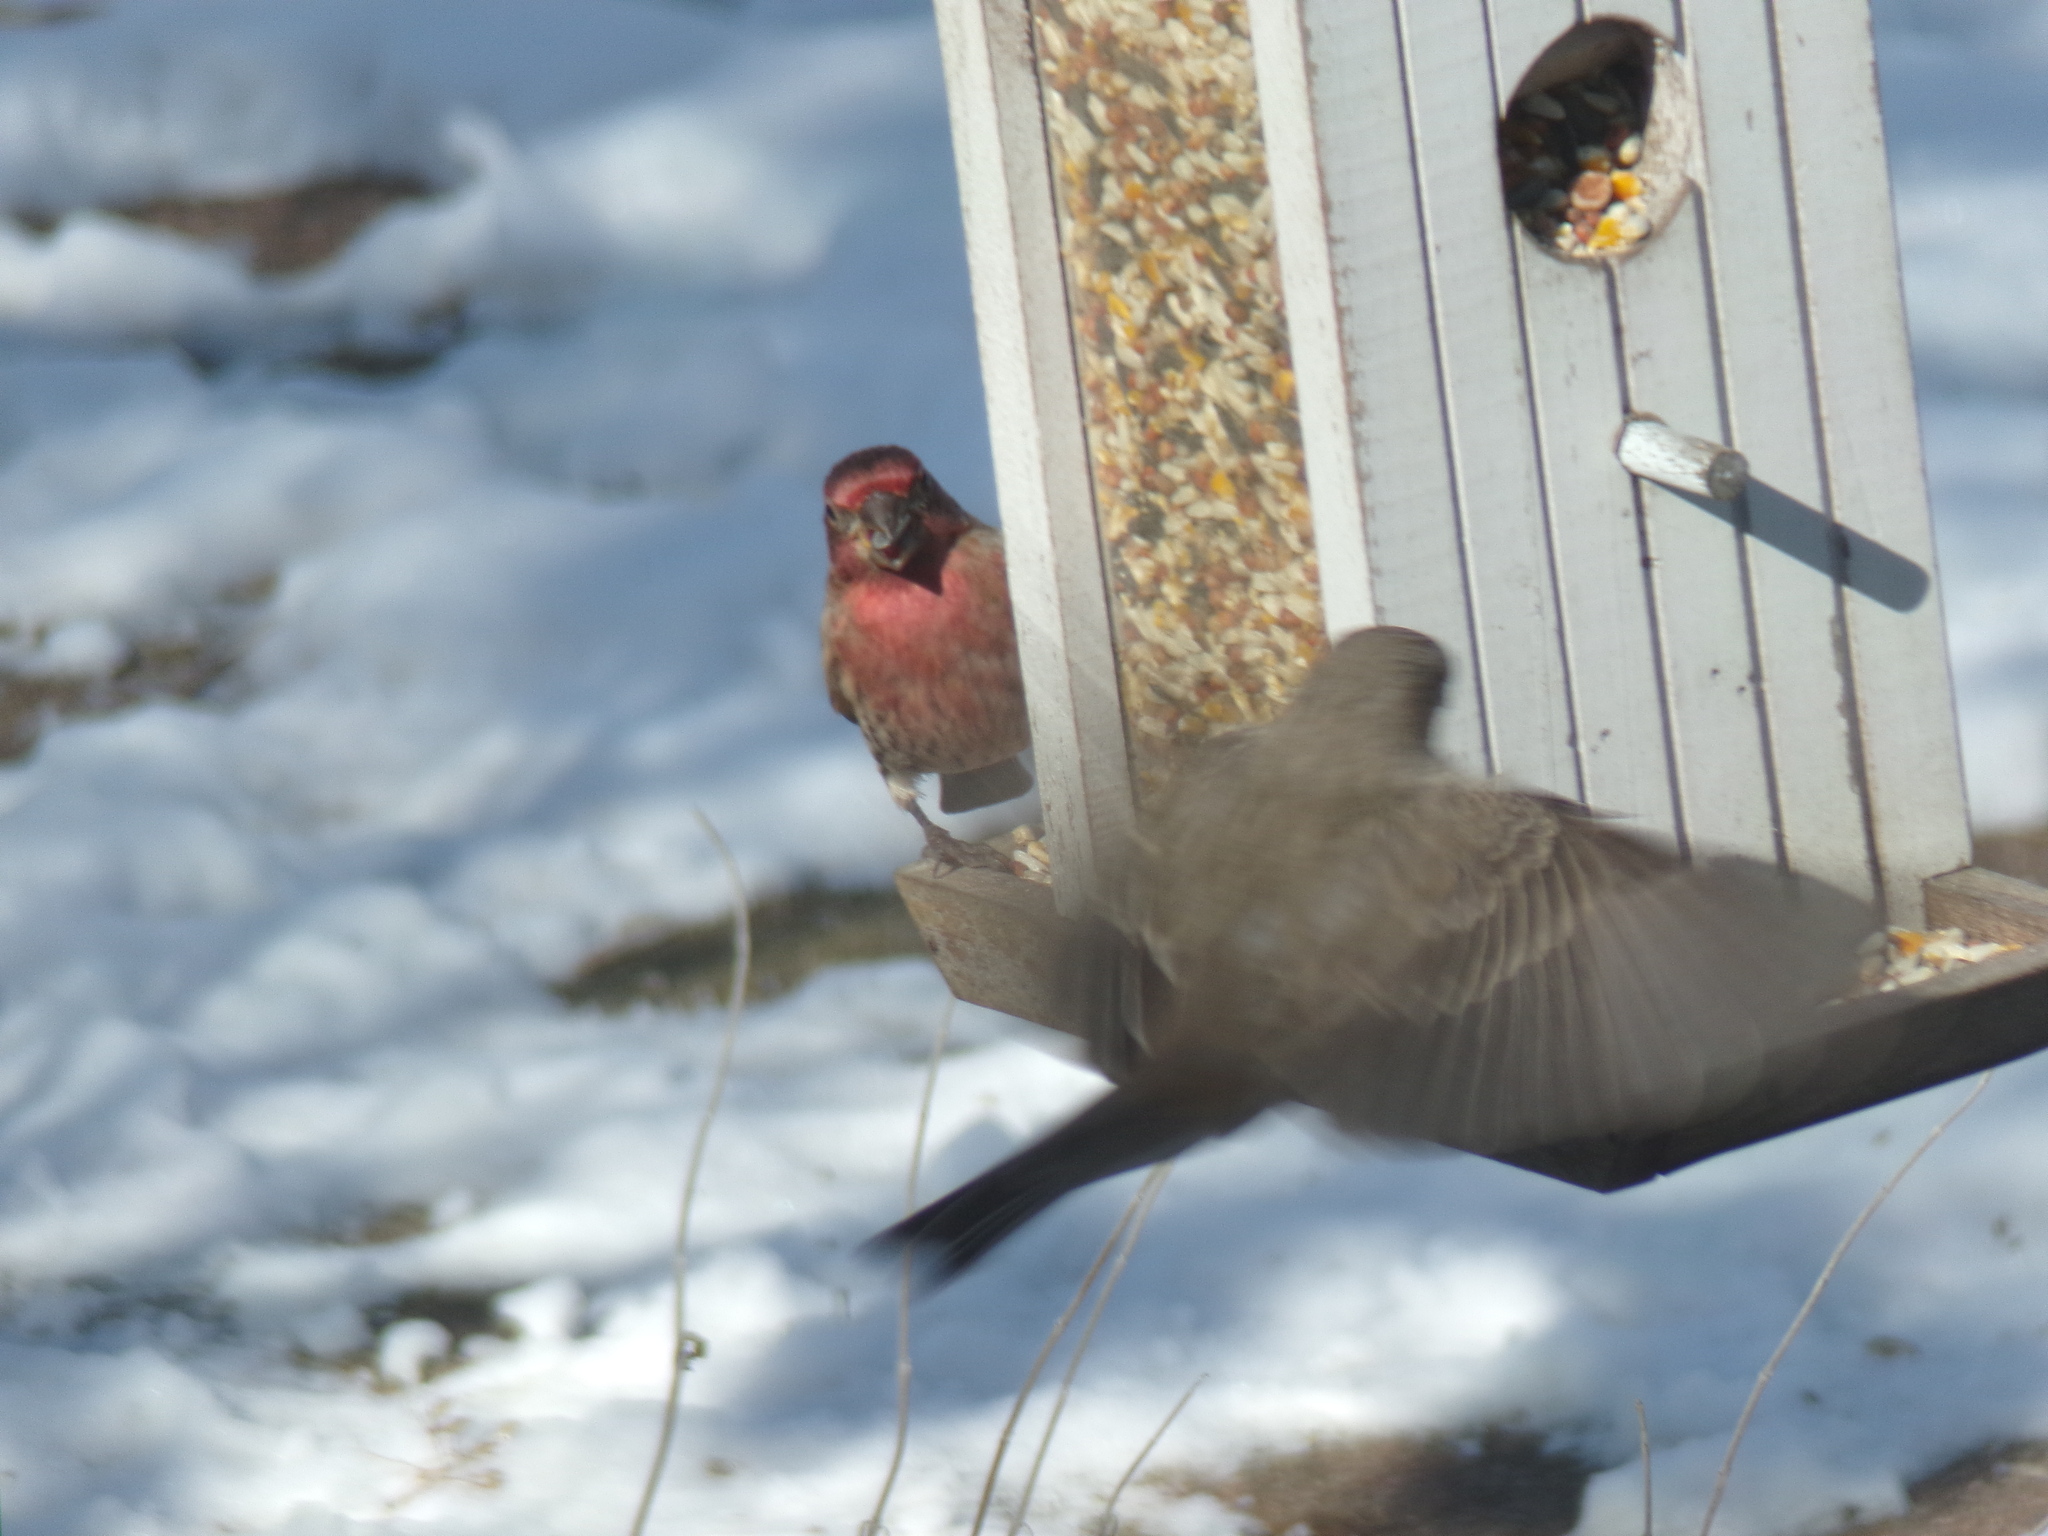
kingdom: Animalia
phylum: Chordata
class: Aves
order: Passeriformes
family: Fringillidae
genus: Haemorhous
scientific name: Haemorhous mexicanus
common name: House finch
